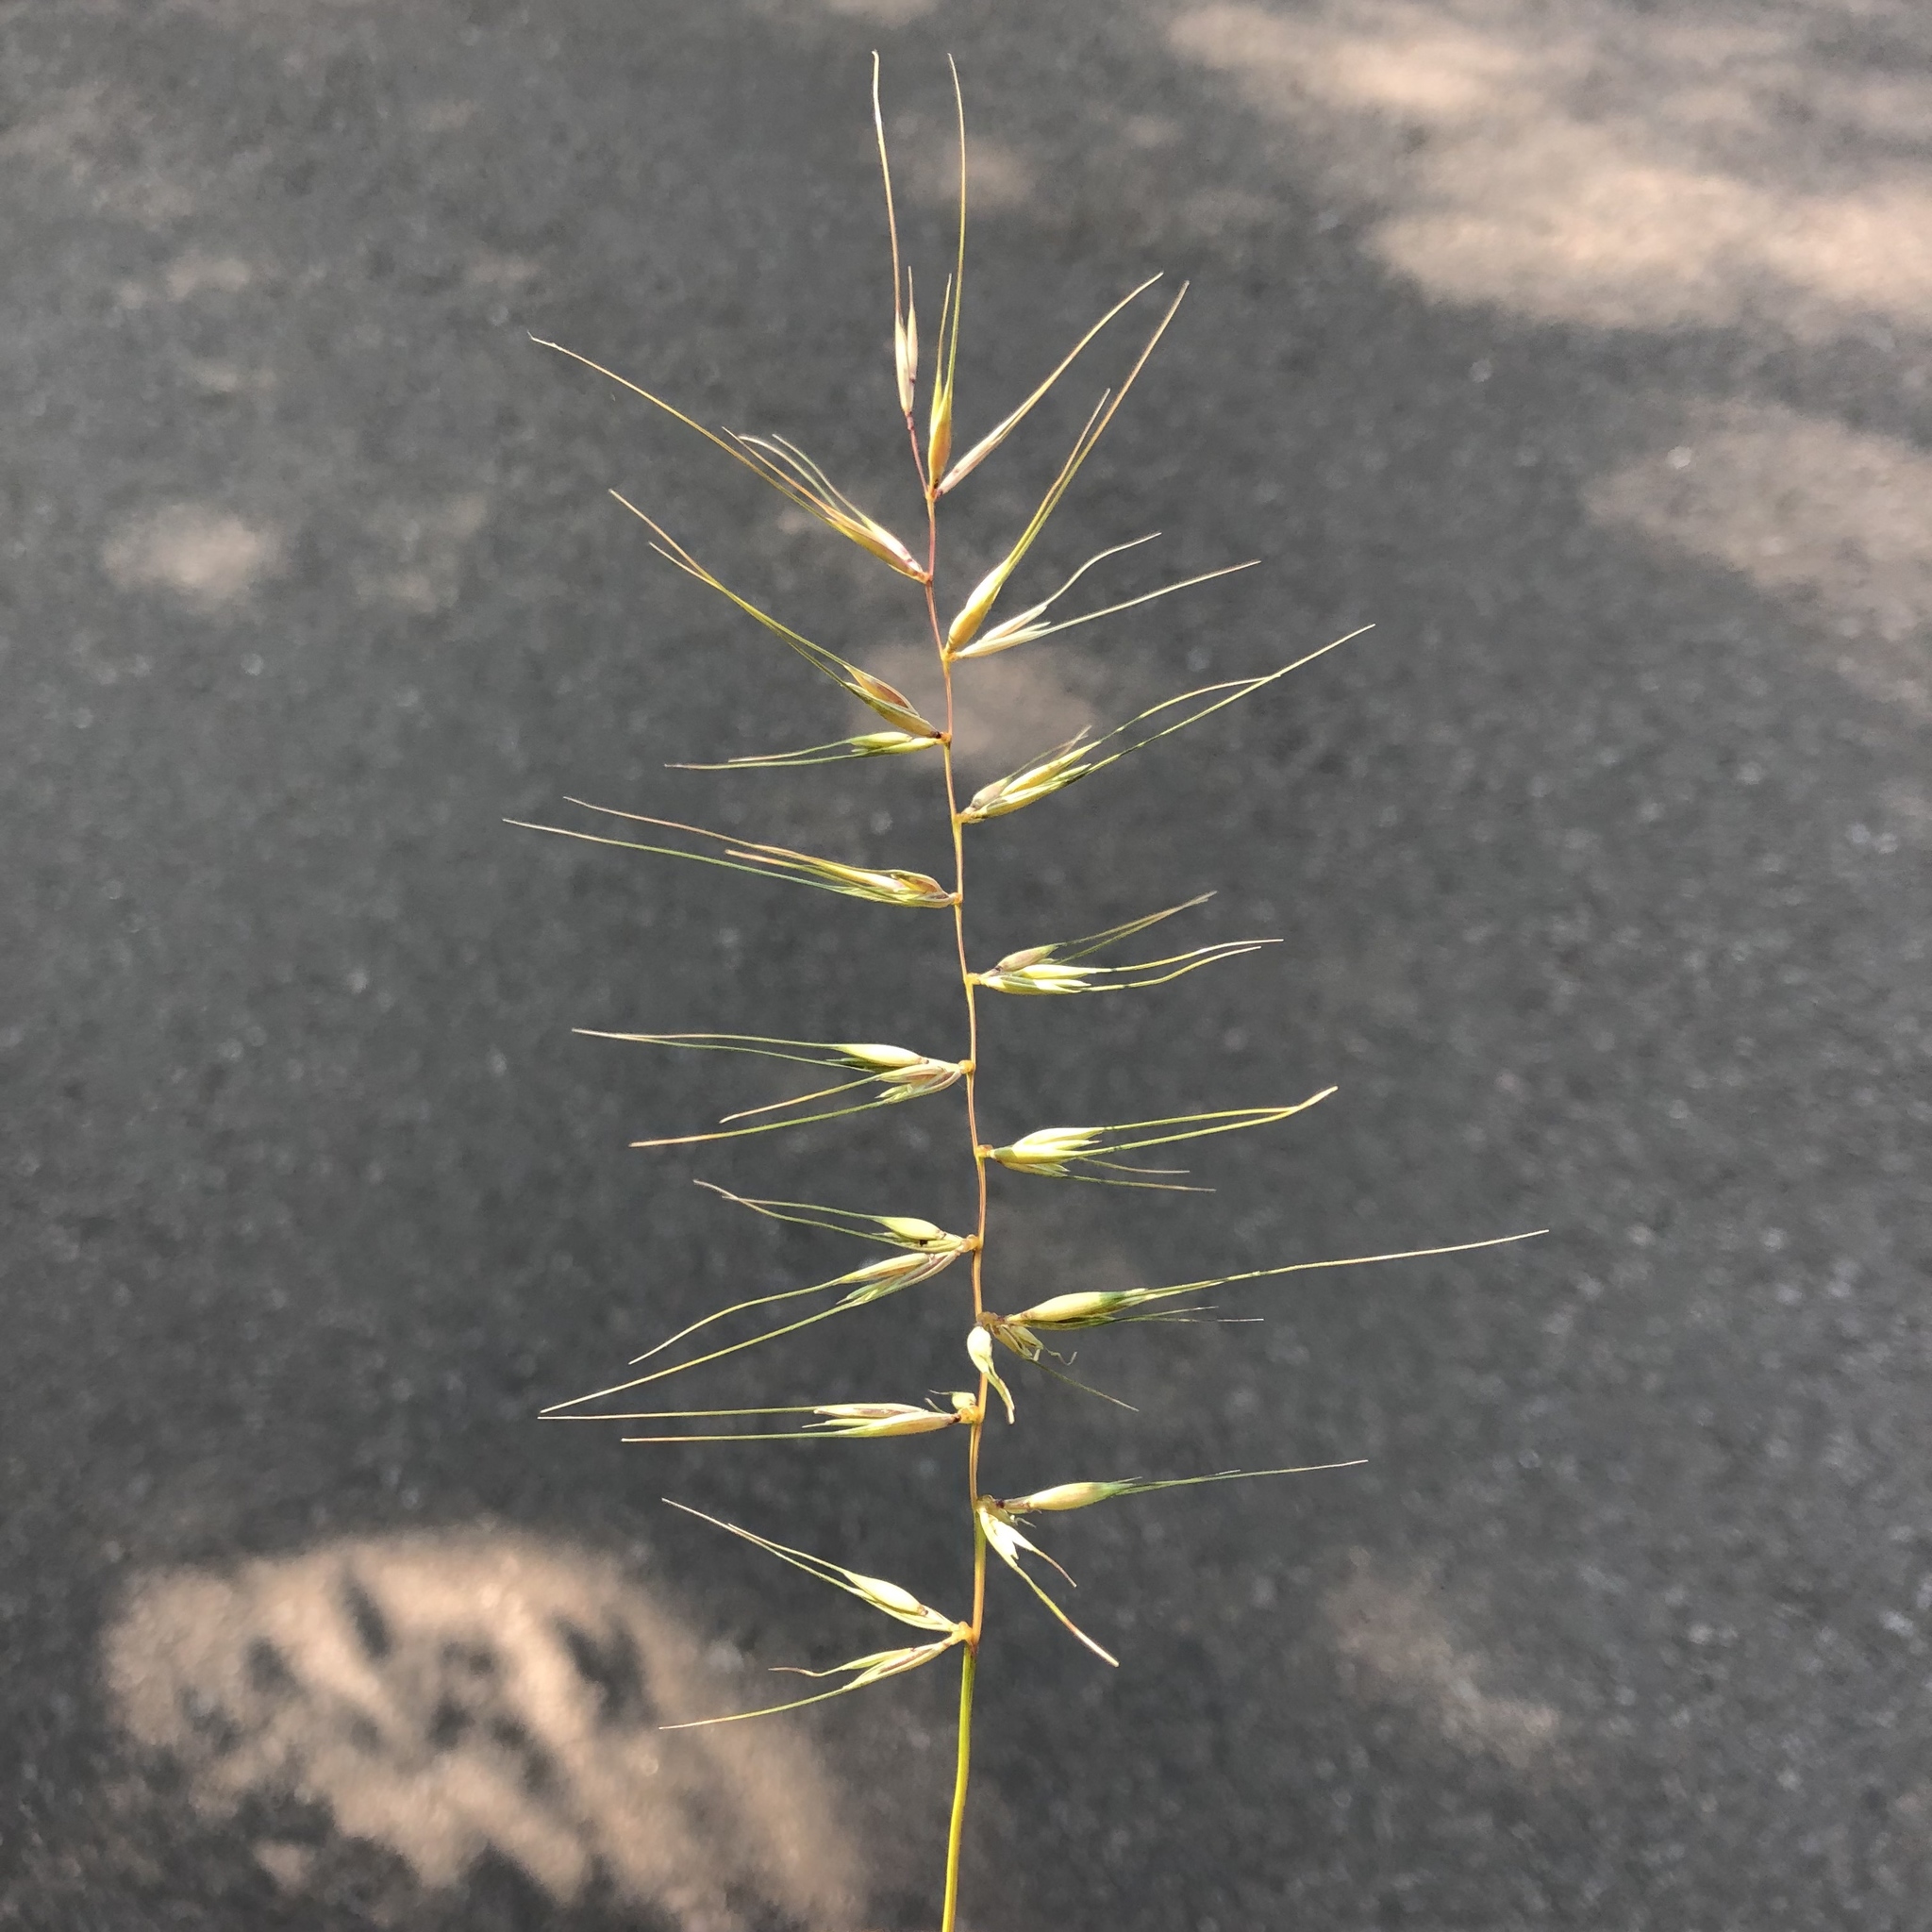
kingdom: Plantae
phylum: Tracheophyta
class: Liliopsida
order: Poales
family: Poaceae
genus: Elymus
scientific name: Elymus hystrix
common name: Bottlebrush grass
